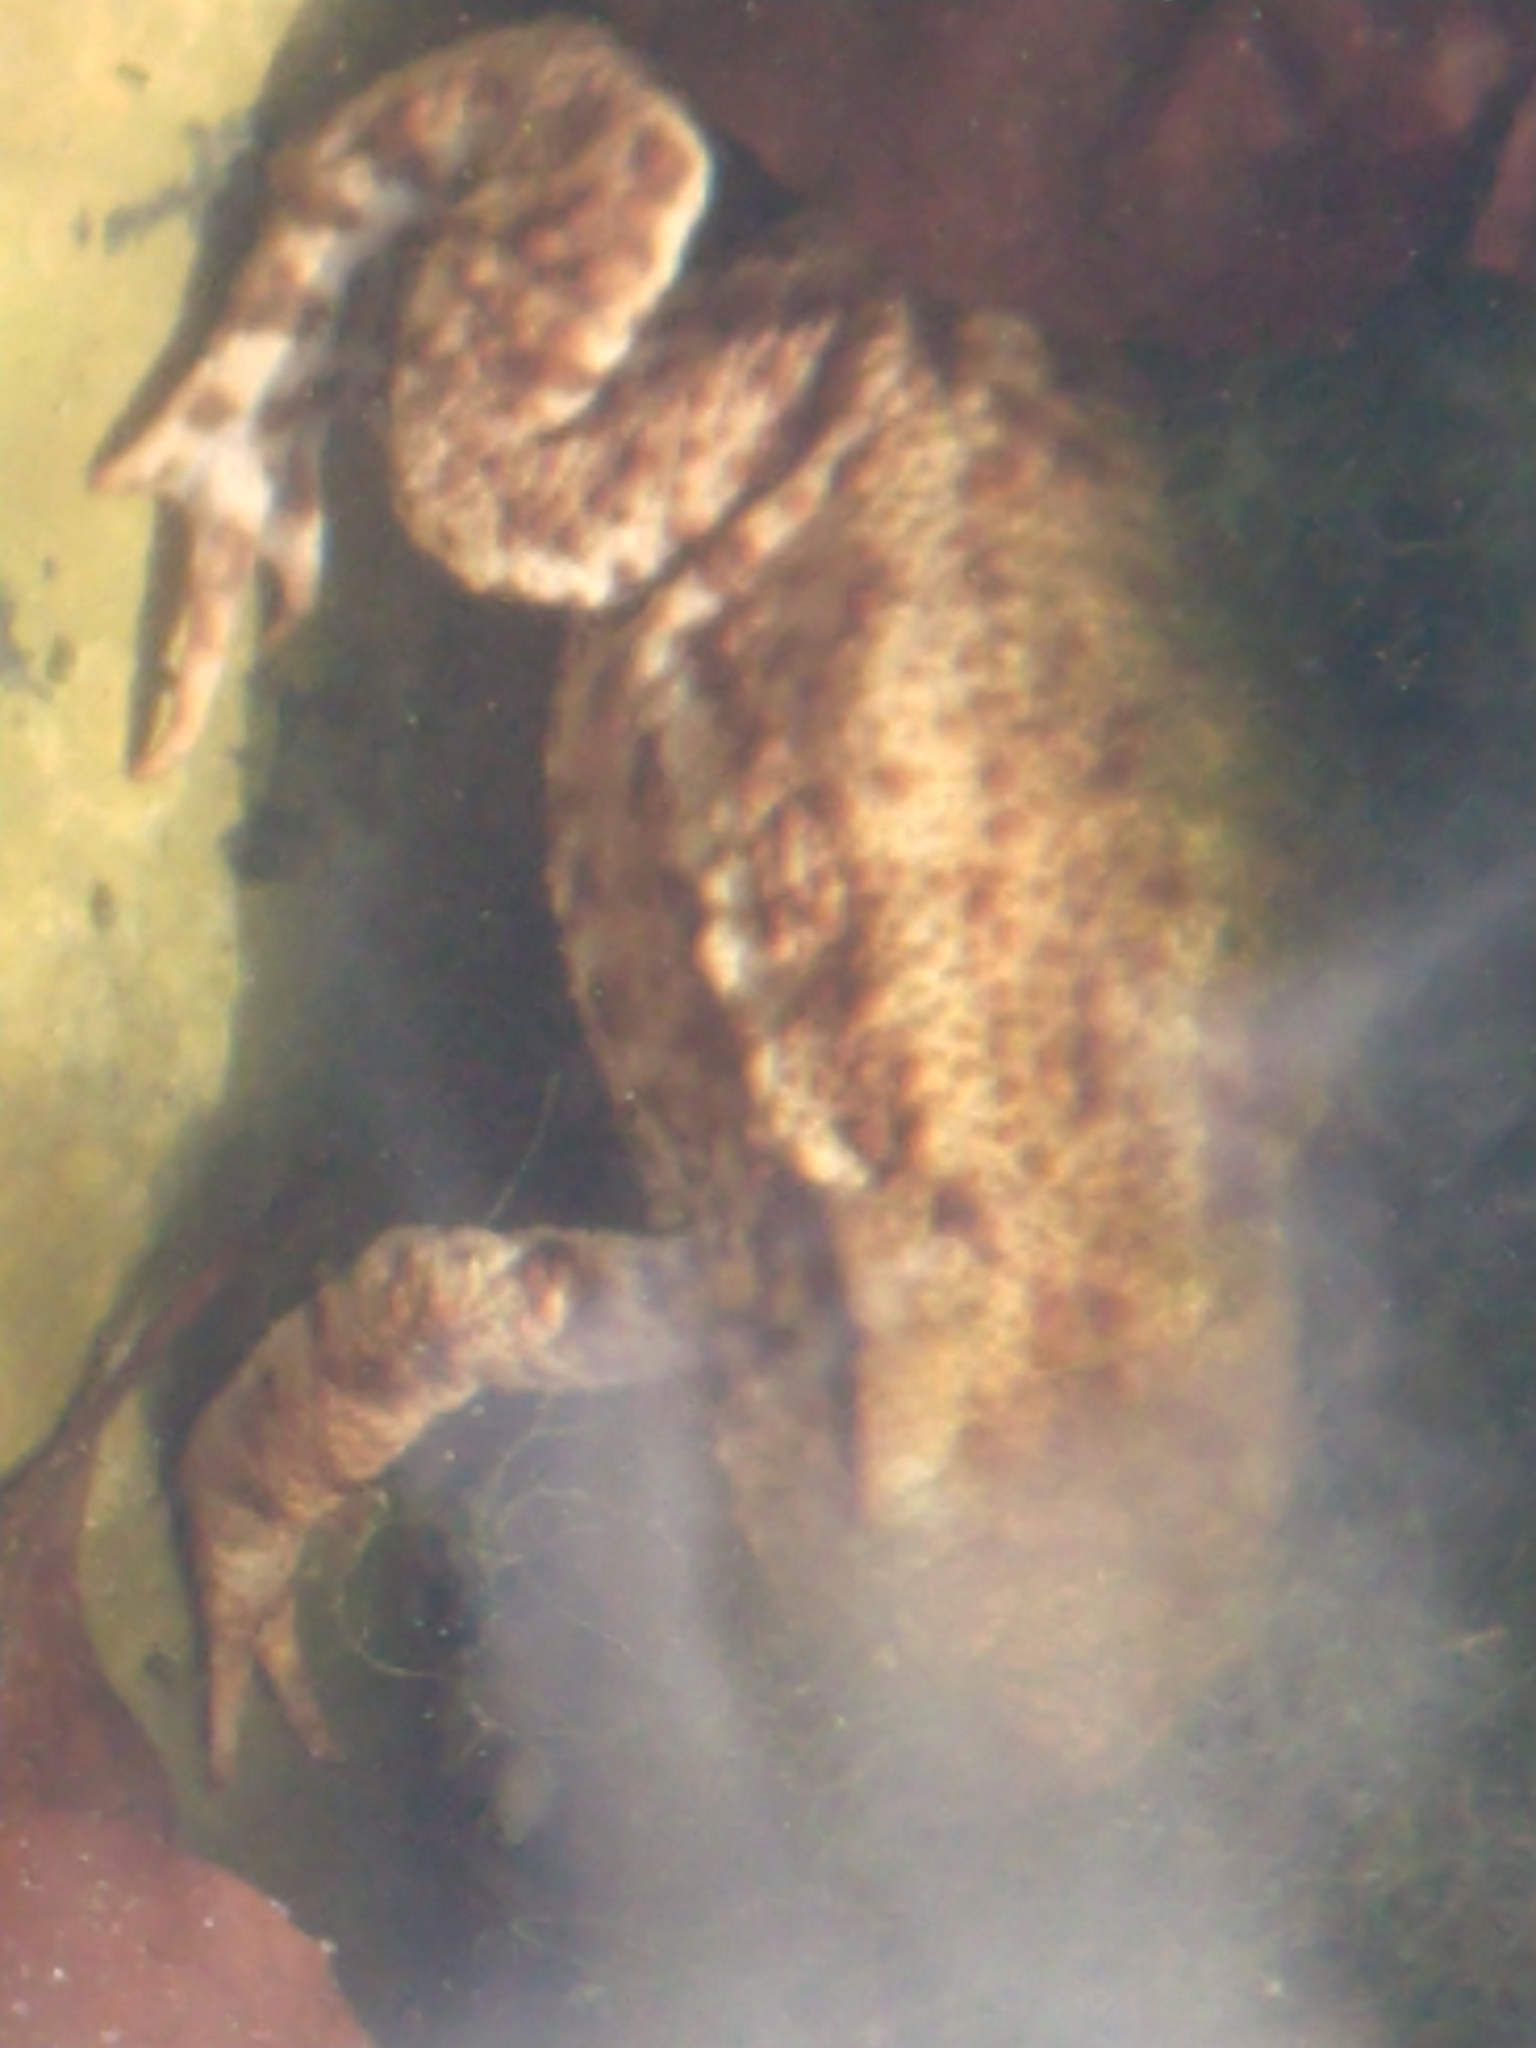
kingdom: Animalia
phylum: Chordata
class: Amphibia
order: Anura
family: Bufonidae
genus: Bufo
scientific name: Bufo bufo
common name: Common toad
